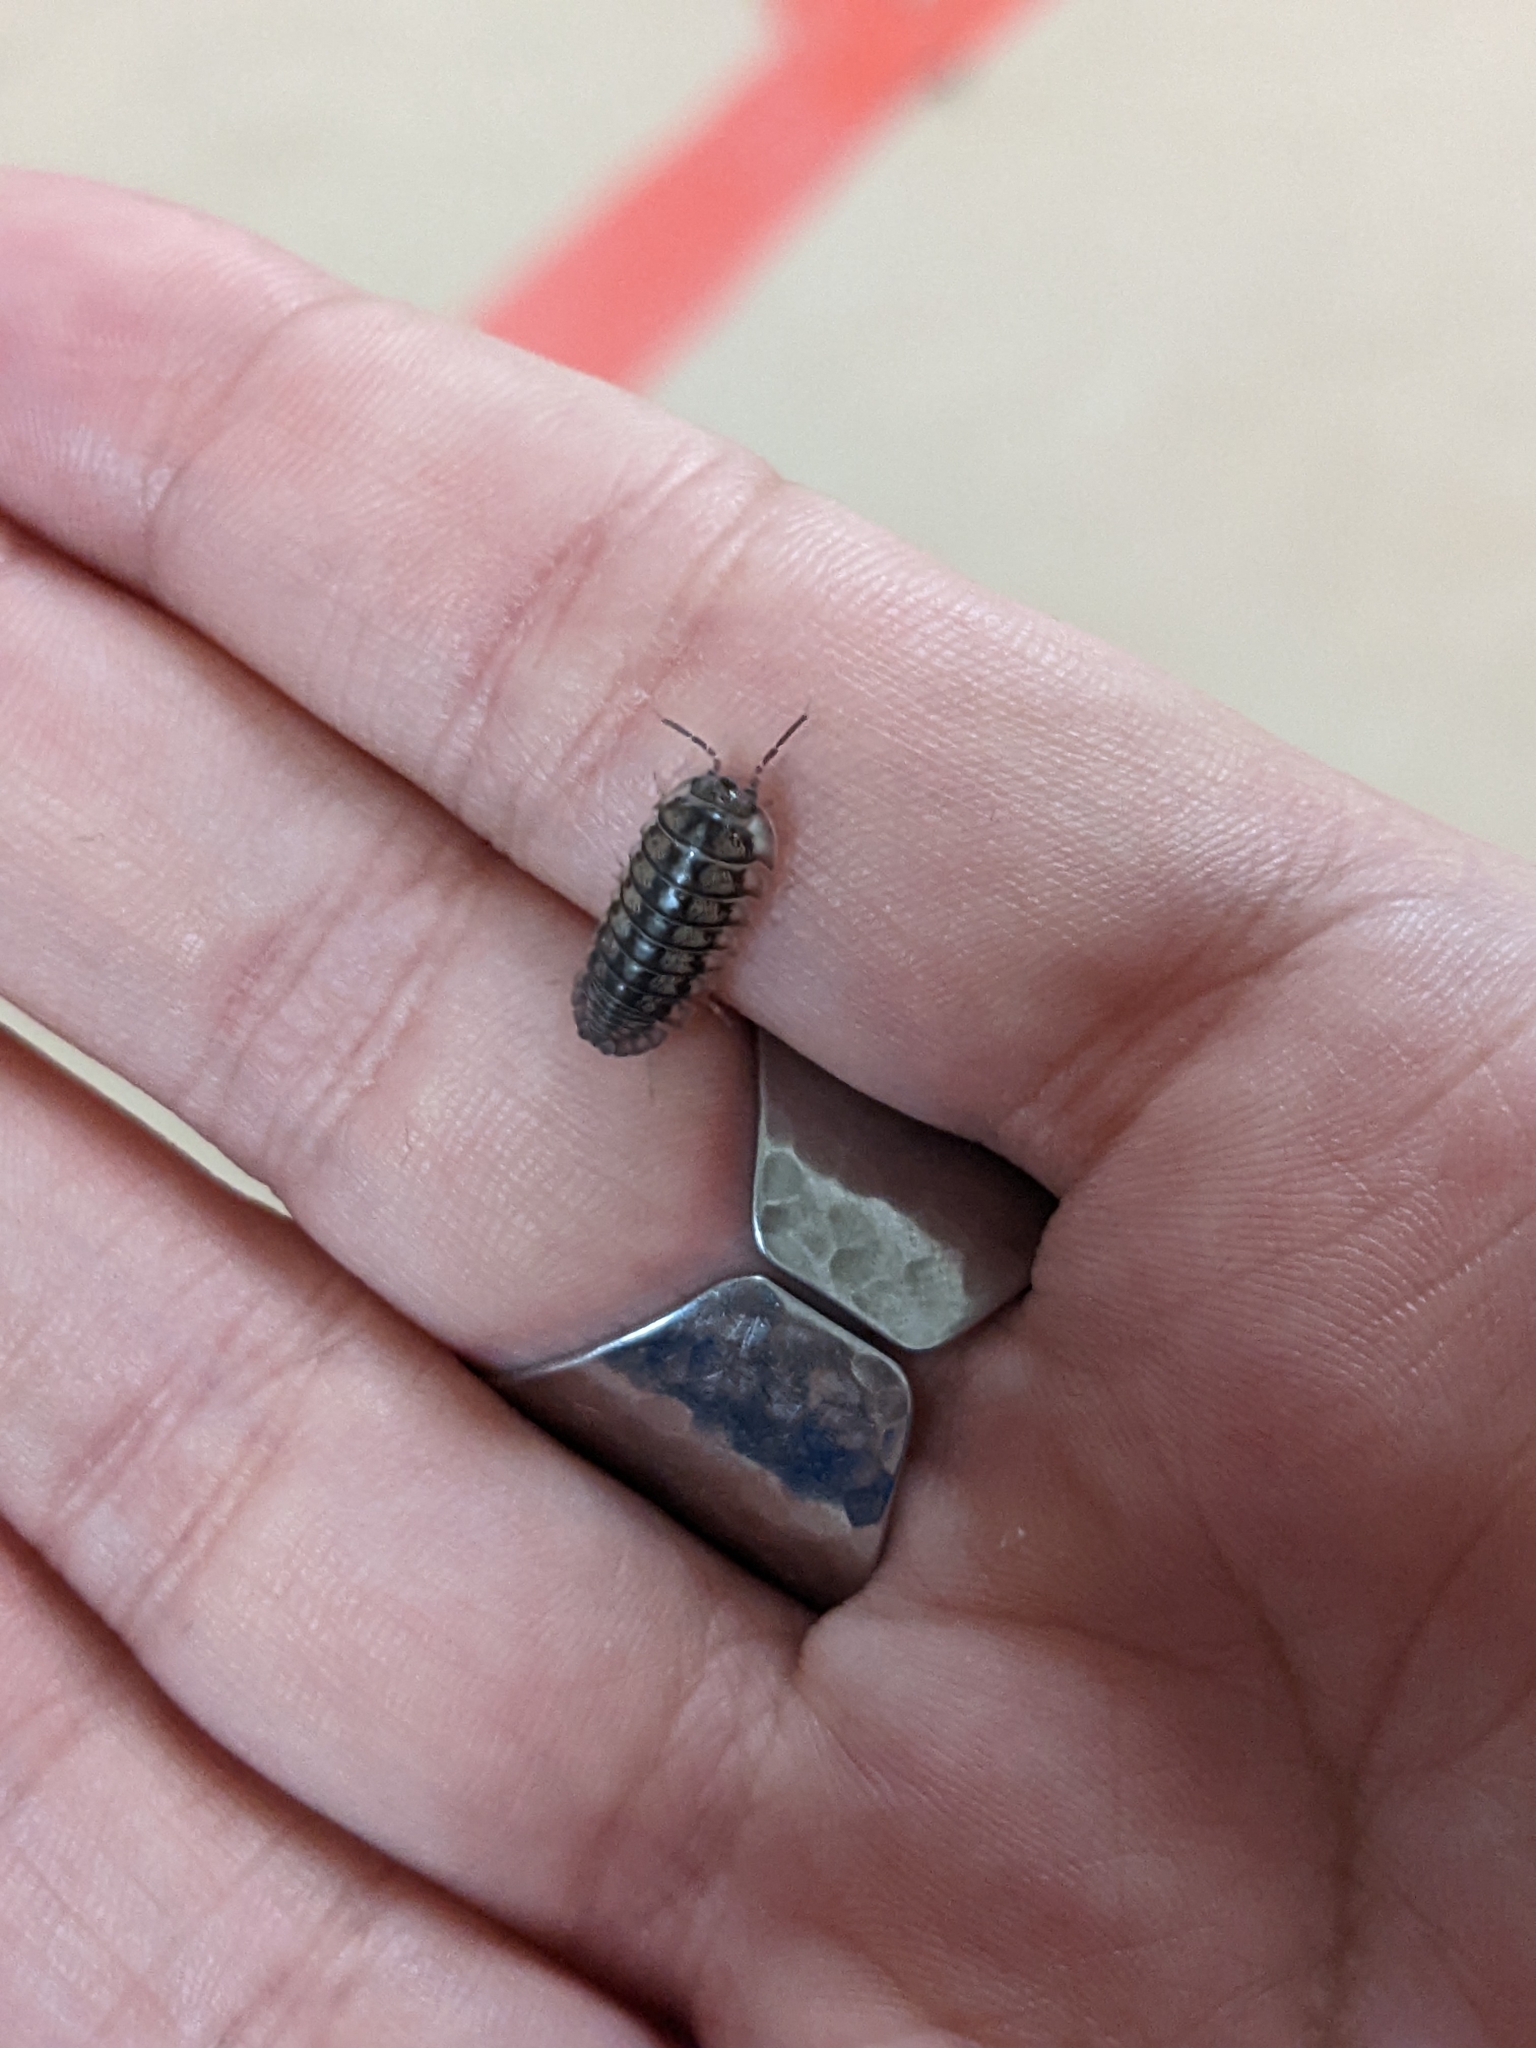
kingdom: Animalia
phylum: Arthropoda
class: Malacostraca
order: Isopoda
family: Armadillidiidae
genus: Armadillidium
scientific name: Armadillidium nasatum
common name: Isopod
